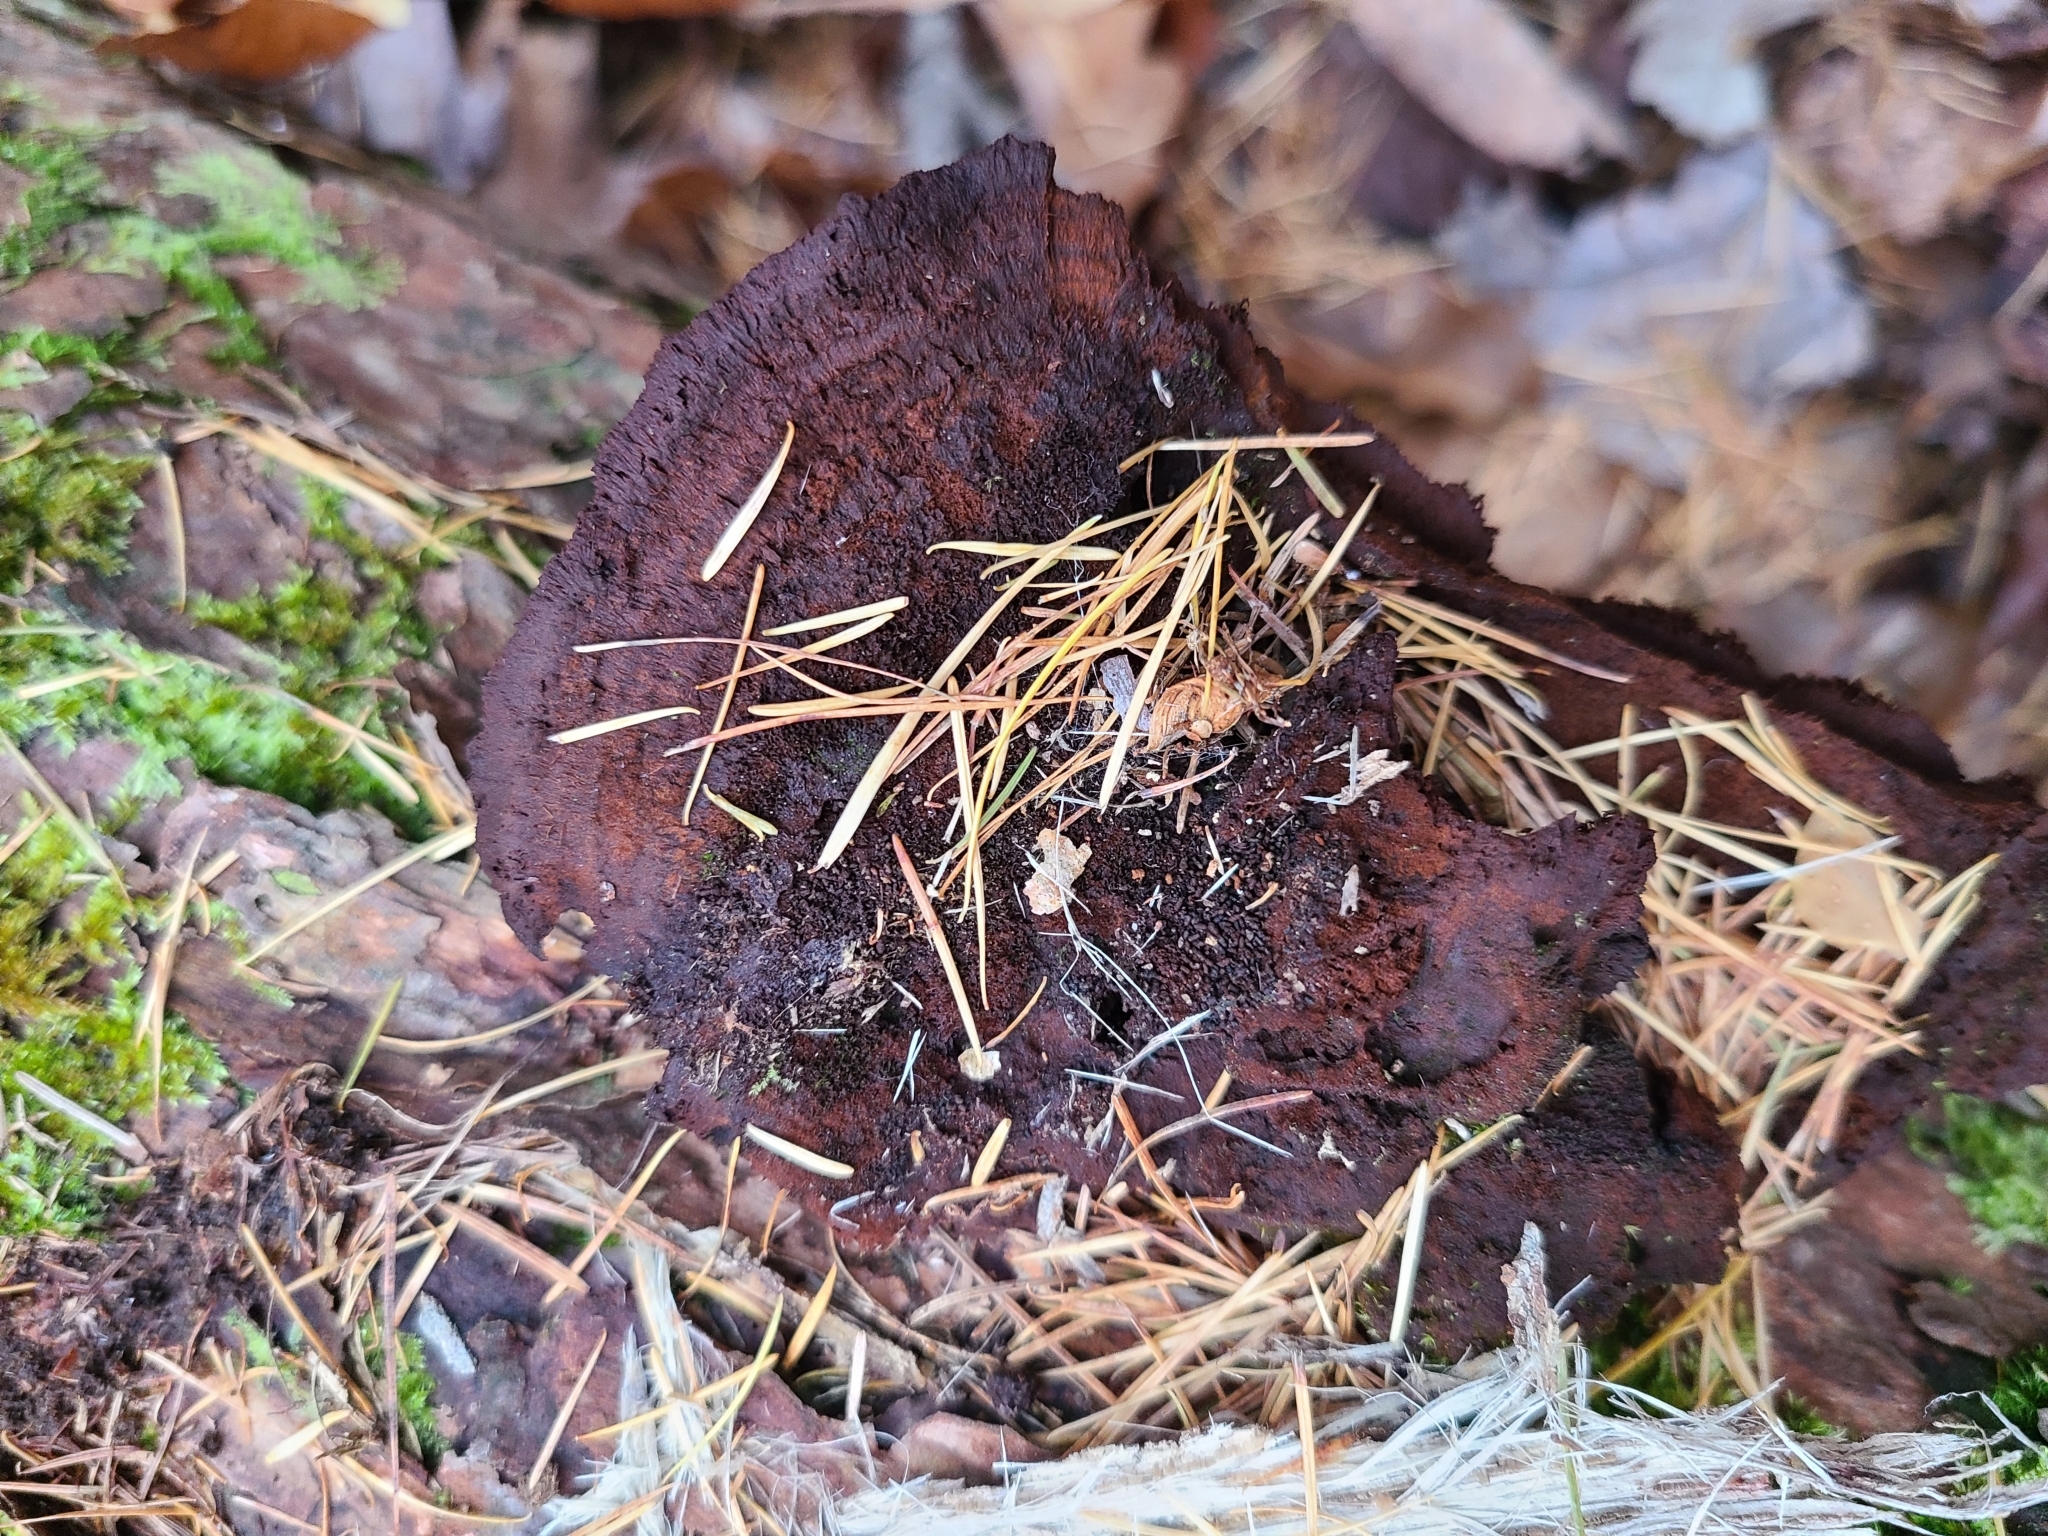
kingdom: Fungi
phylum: Basidiomycota
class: Agaricomycetes
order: Polyporales
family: Laetiporaceae
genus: Phaeolus
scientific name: Phaeolus schweinitzii
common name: Dyer's mazegill
